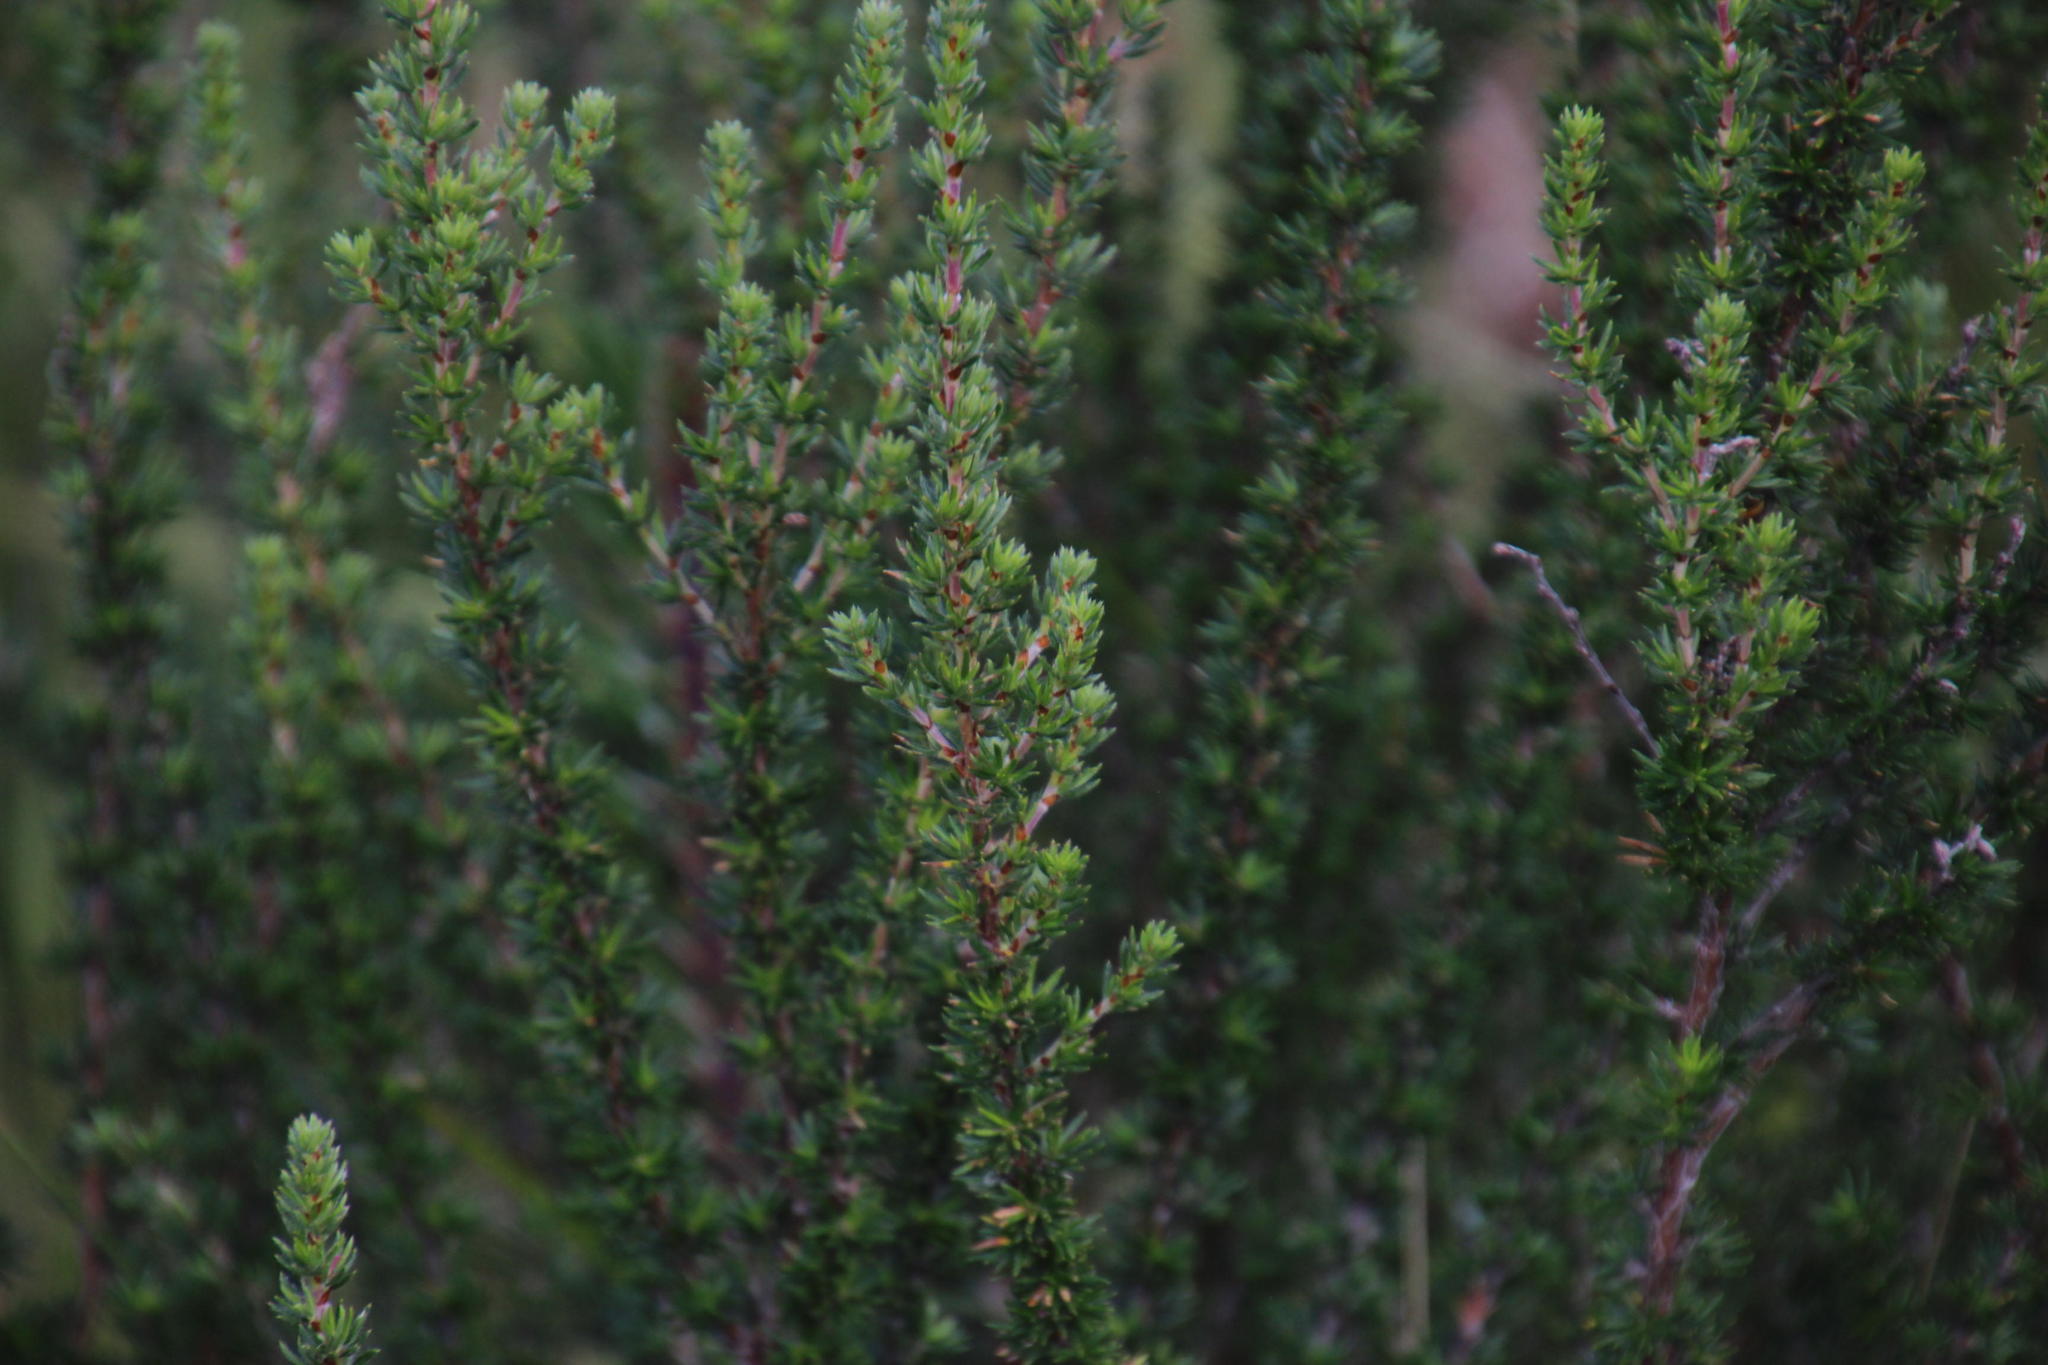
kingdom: Plantae
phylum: Tracheophyta
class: Magnoliopsida
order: Rosales
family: Rosaceae
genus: Cliffortia
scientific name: Cliffortia stricta
